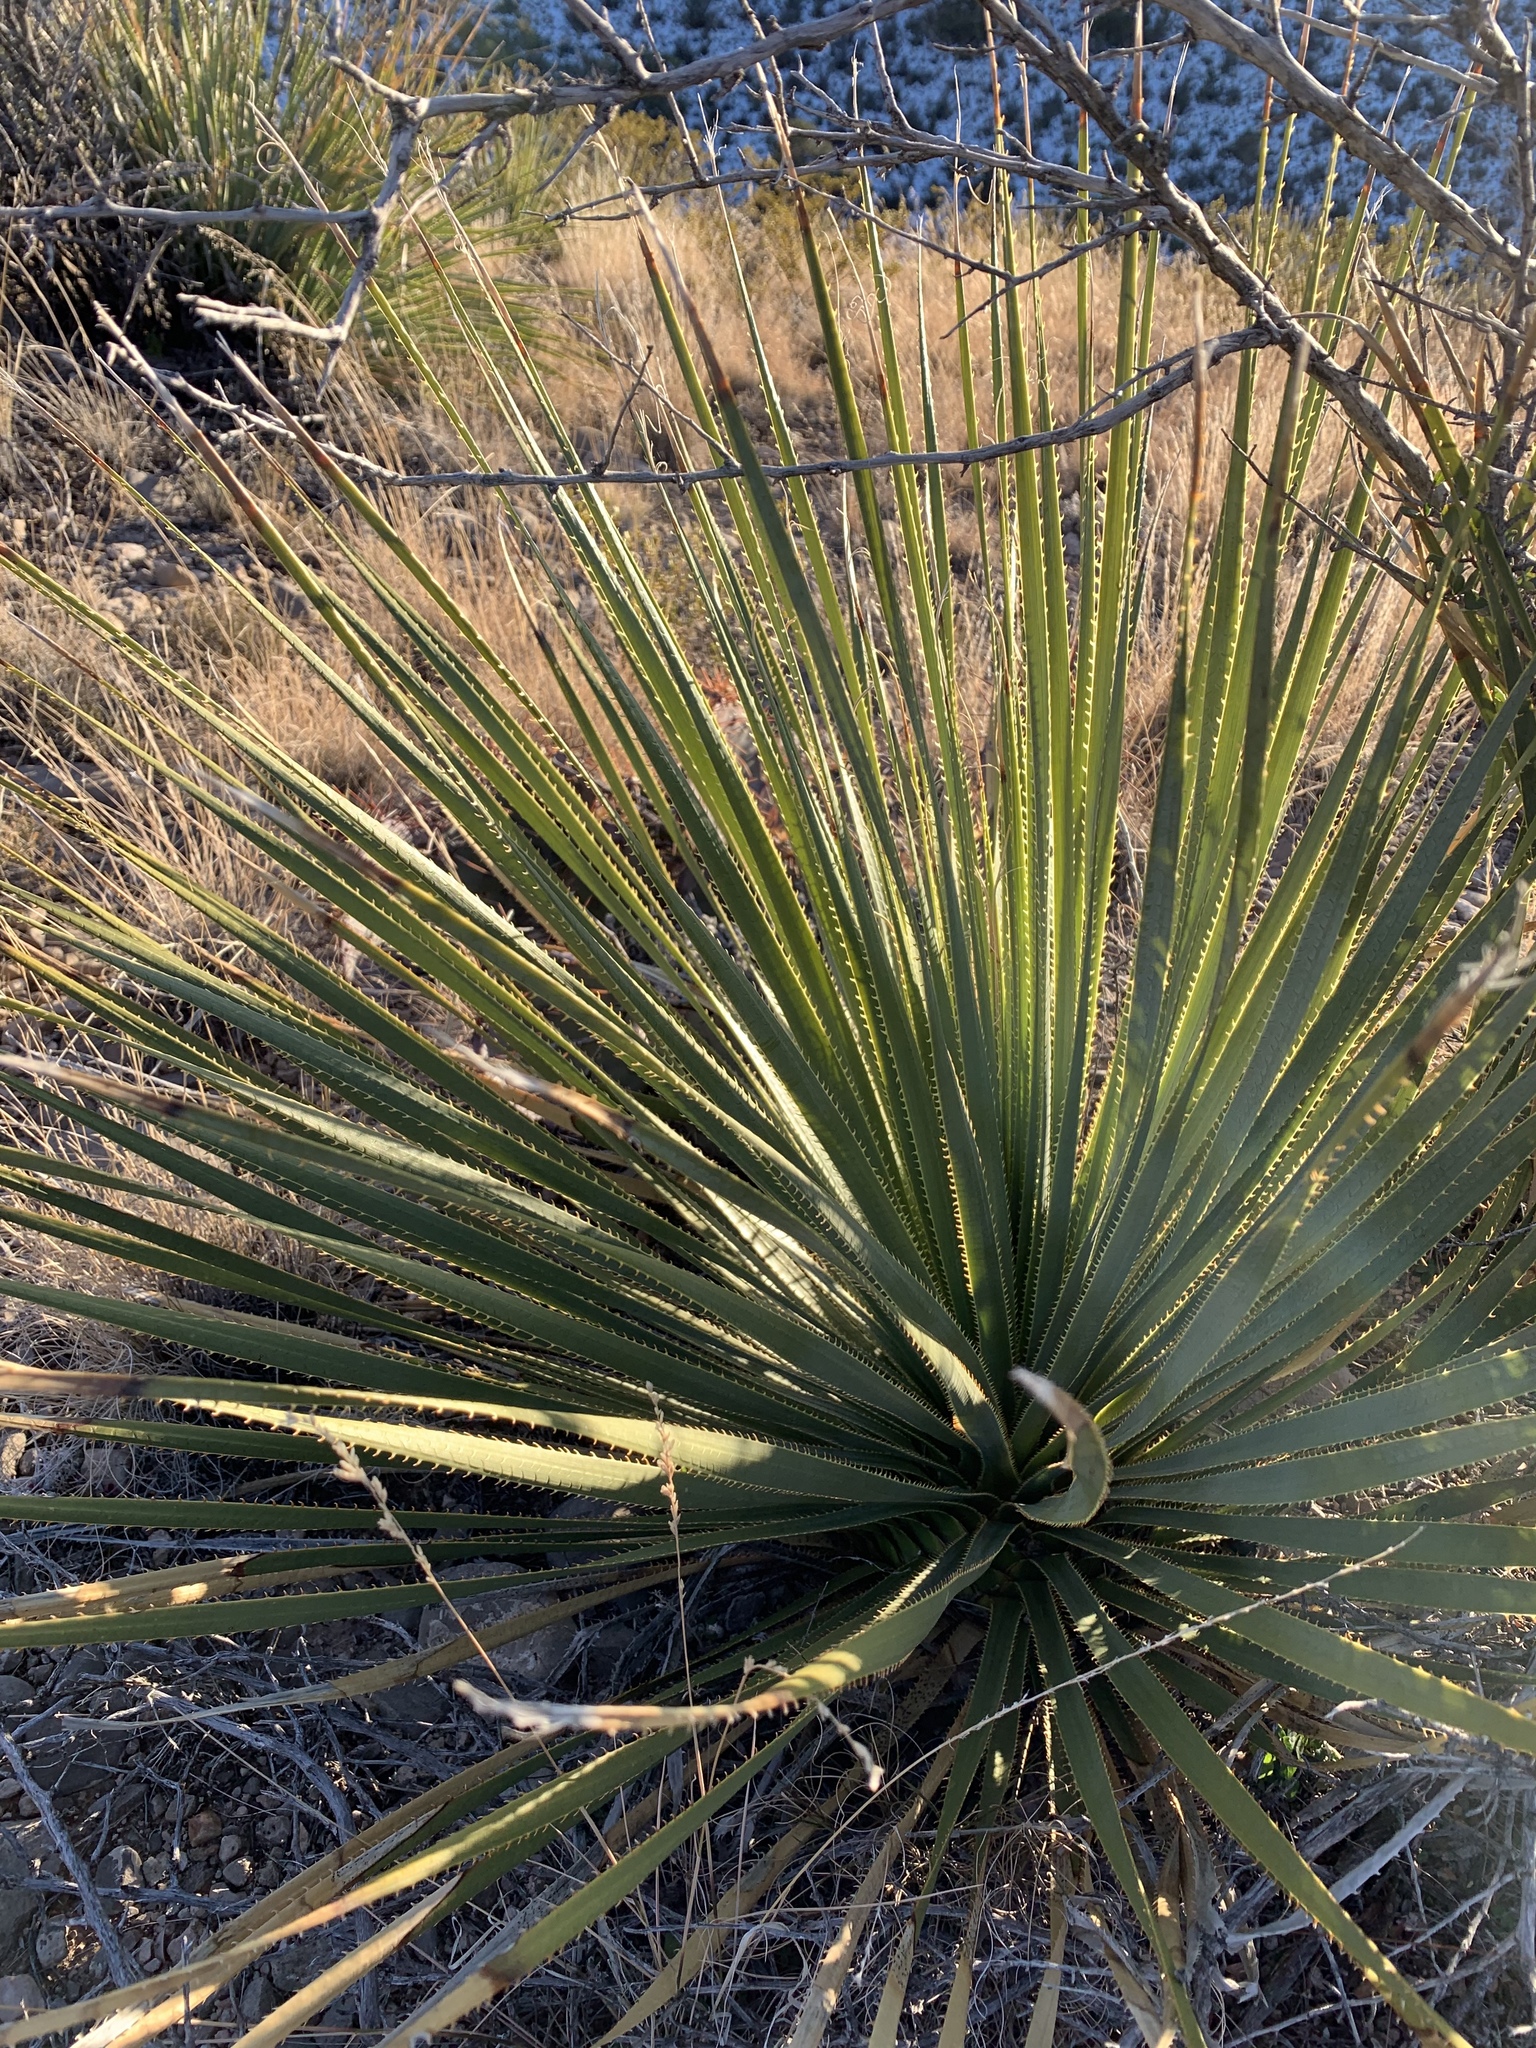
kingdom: Plantae
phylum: Tracheophyta
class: Liliopsida
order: Asparagales
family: Asparagaceae
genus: Dasylirion
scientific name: Dasylirion wheeleri
